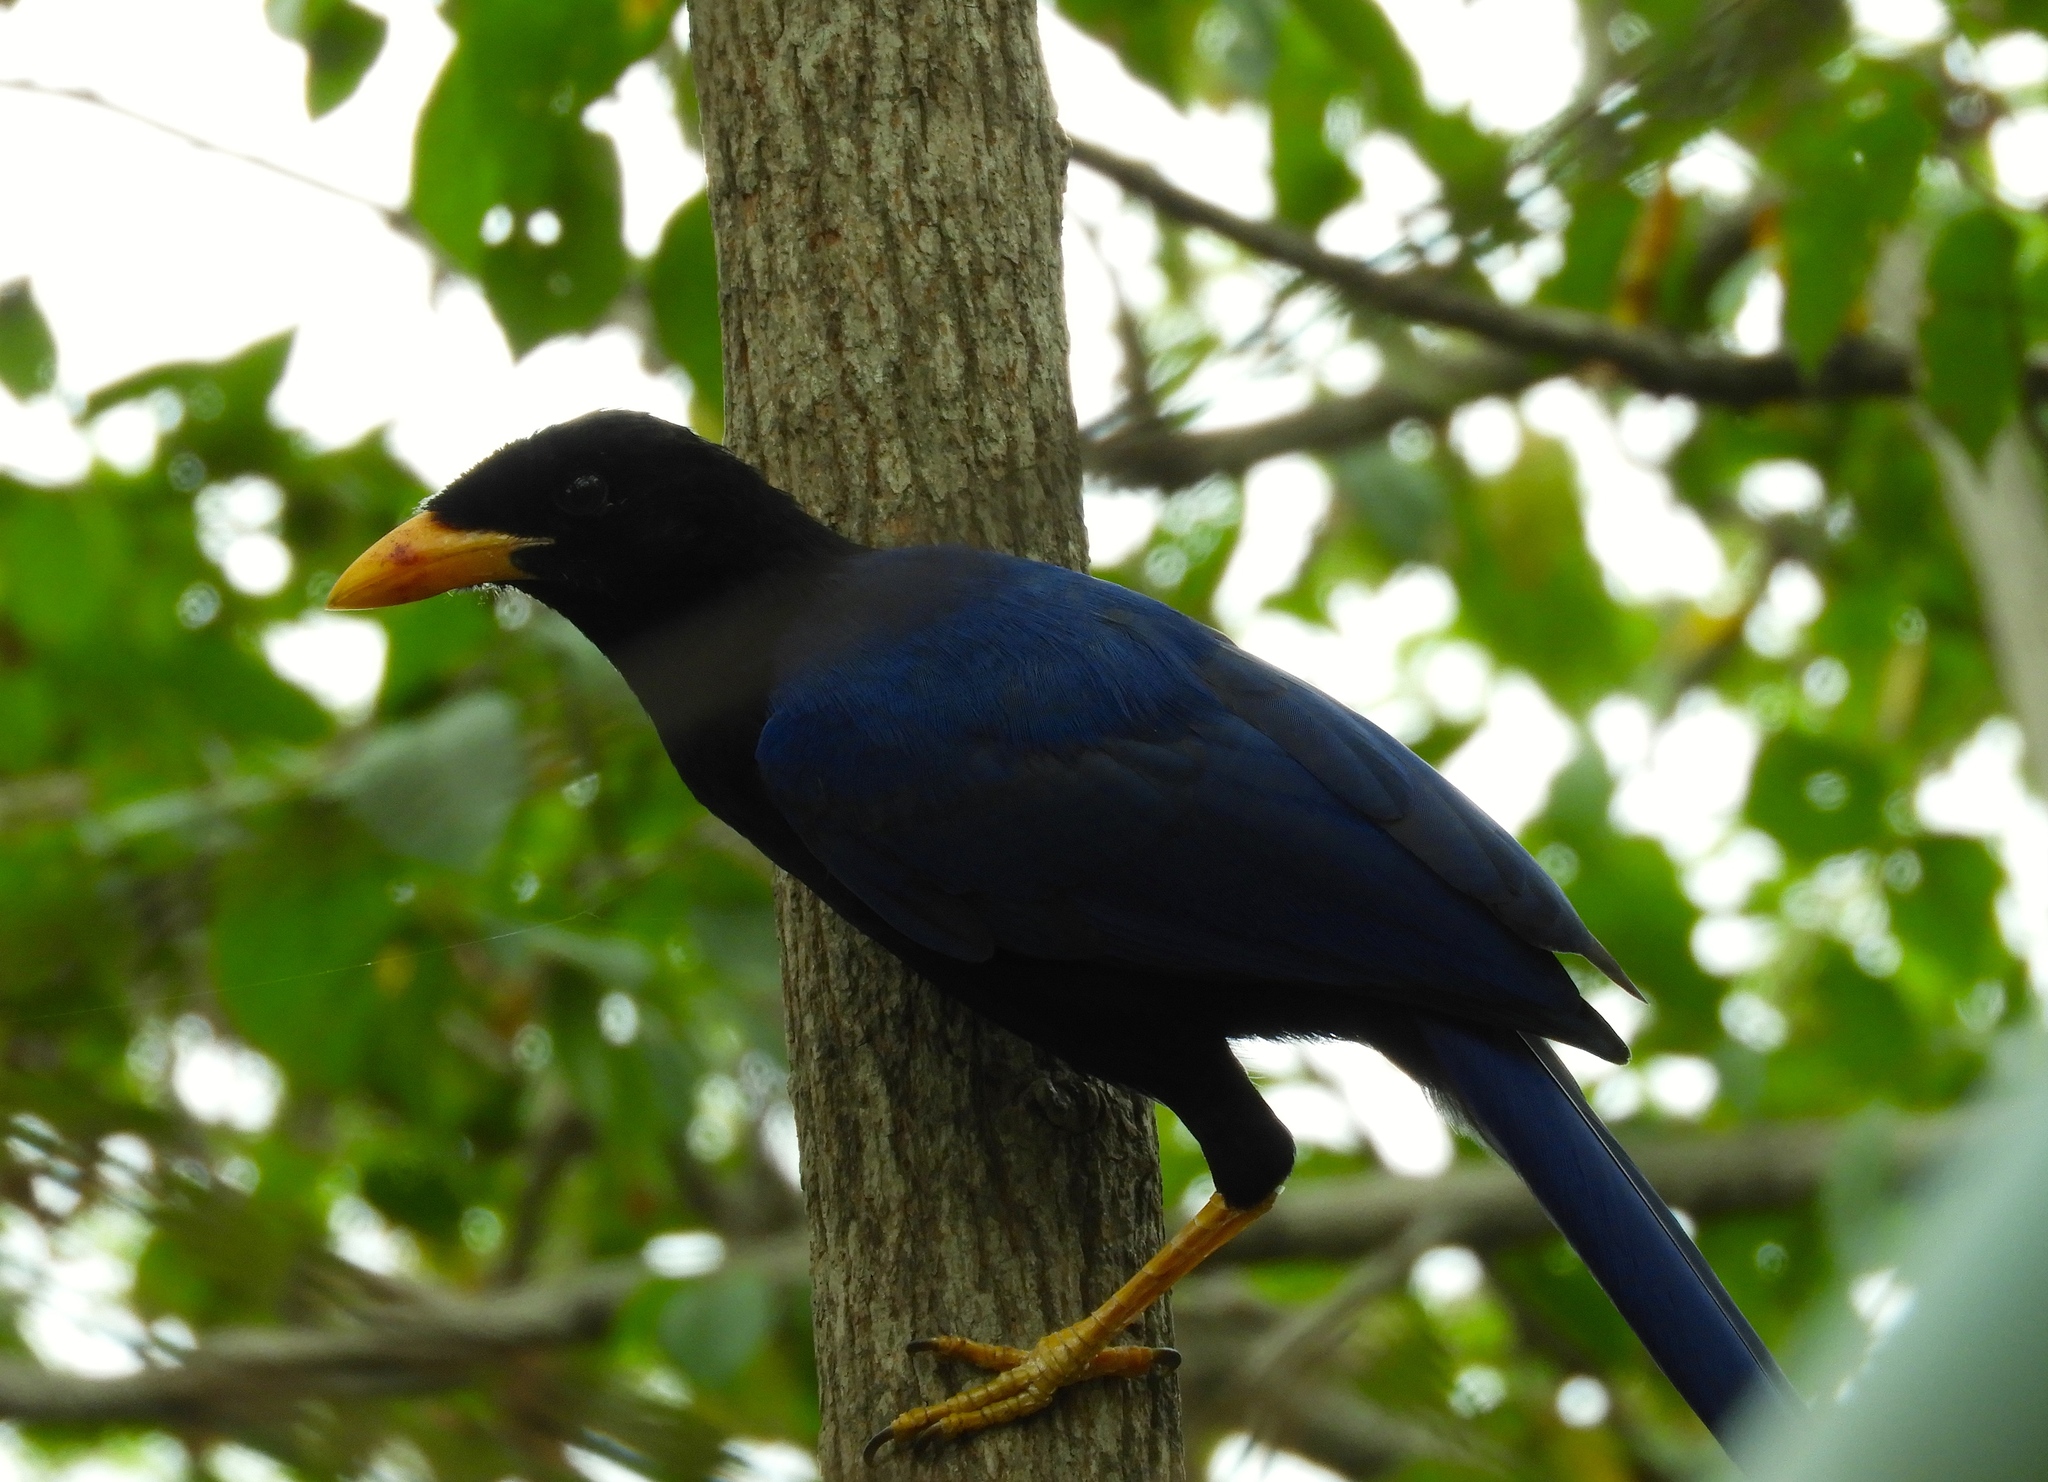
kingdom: Animalia
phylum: Chordata
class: Aves
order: Passeriformes
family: Corvidae
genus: Cyanocorax
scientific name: Cyanocorax beecheii
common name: Purplish-backed jay
